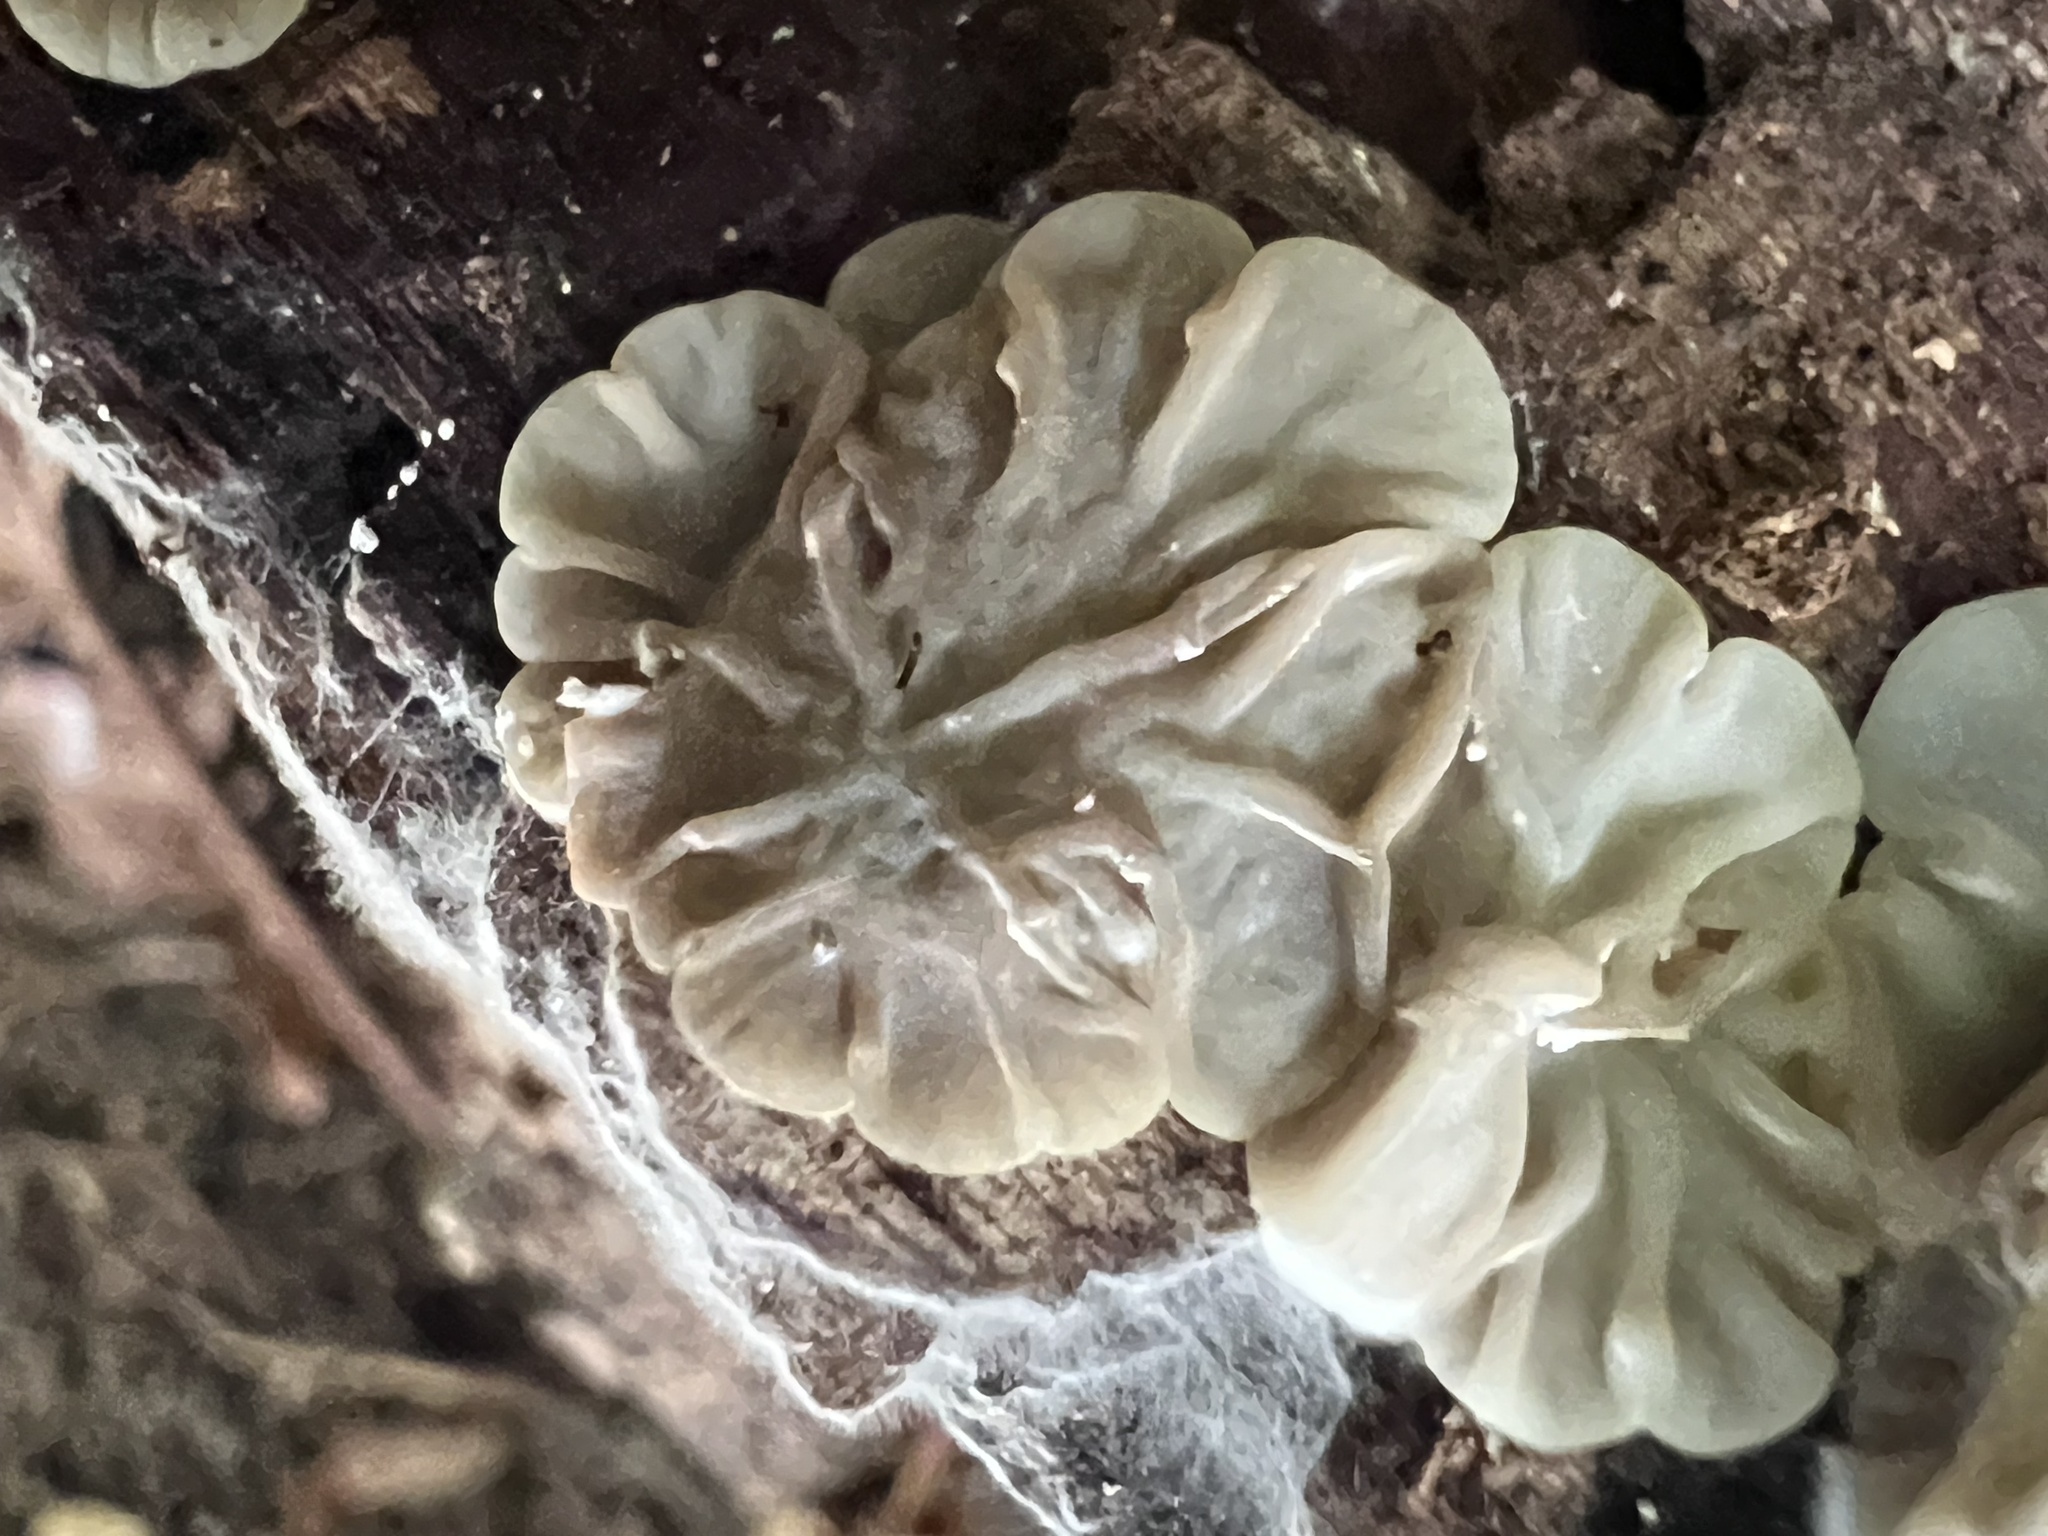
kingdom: Fungi
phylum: Basidiomycota
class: Agaricomycetes
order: Auriculariales
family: Auriculariaceae
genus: Auricularia
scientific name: Auricularia mesenterica
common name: Tripe fungus
